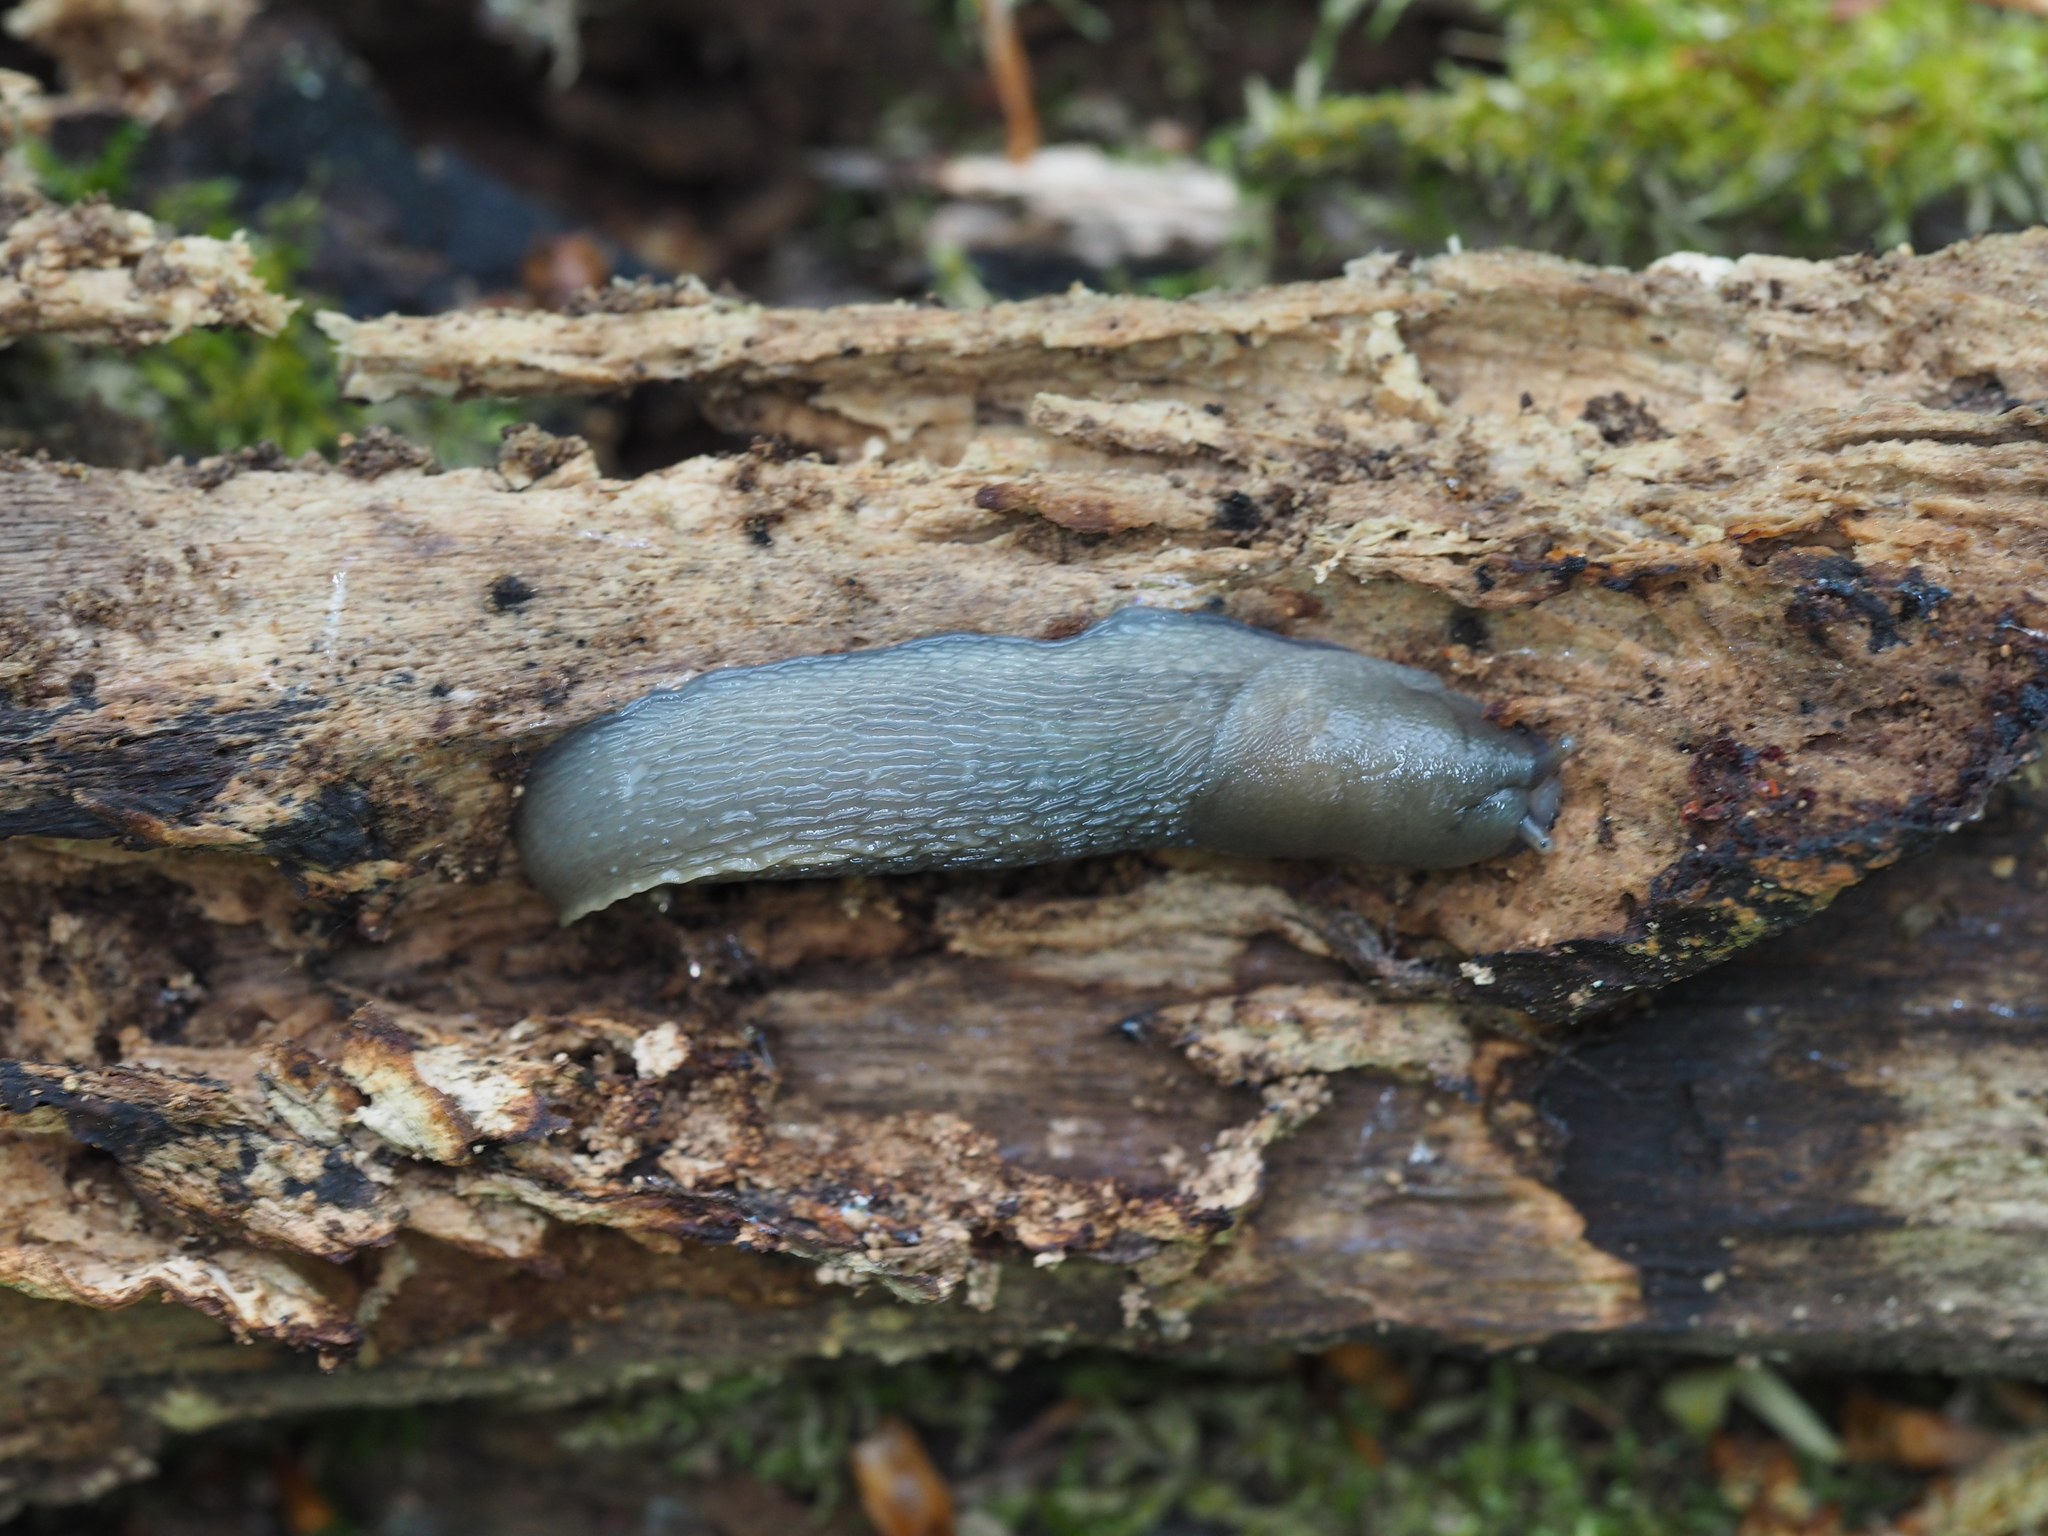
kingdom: Animalia
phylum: Mollusca
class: Gastropoda
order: Stylommatophora
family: Limacidae
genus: Limax
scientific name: Limax cinereoniger
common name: Ash-black slug
